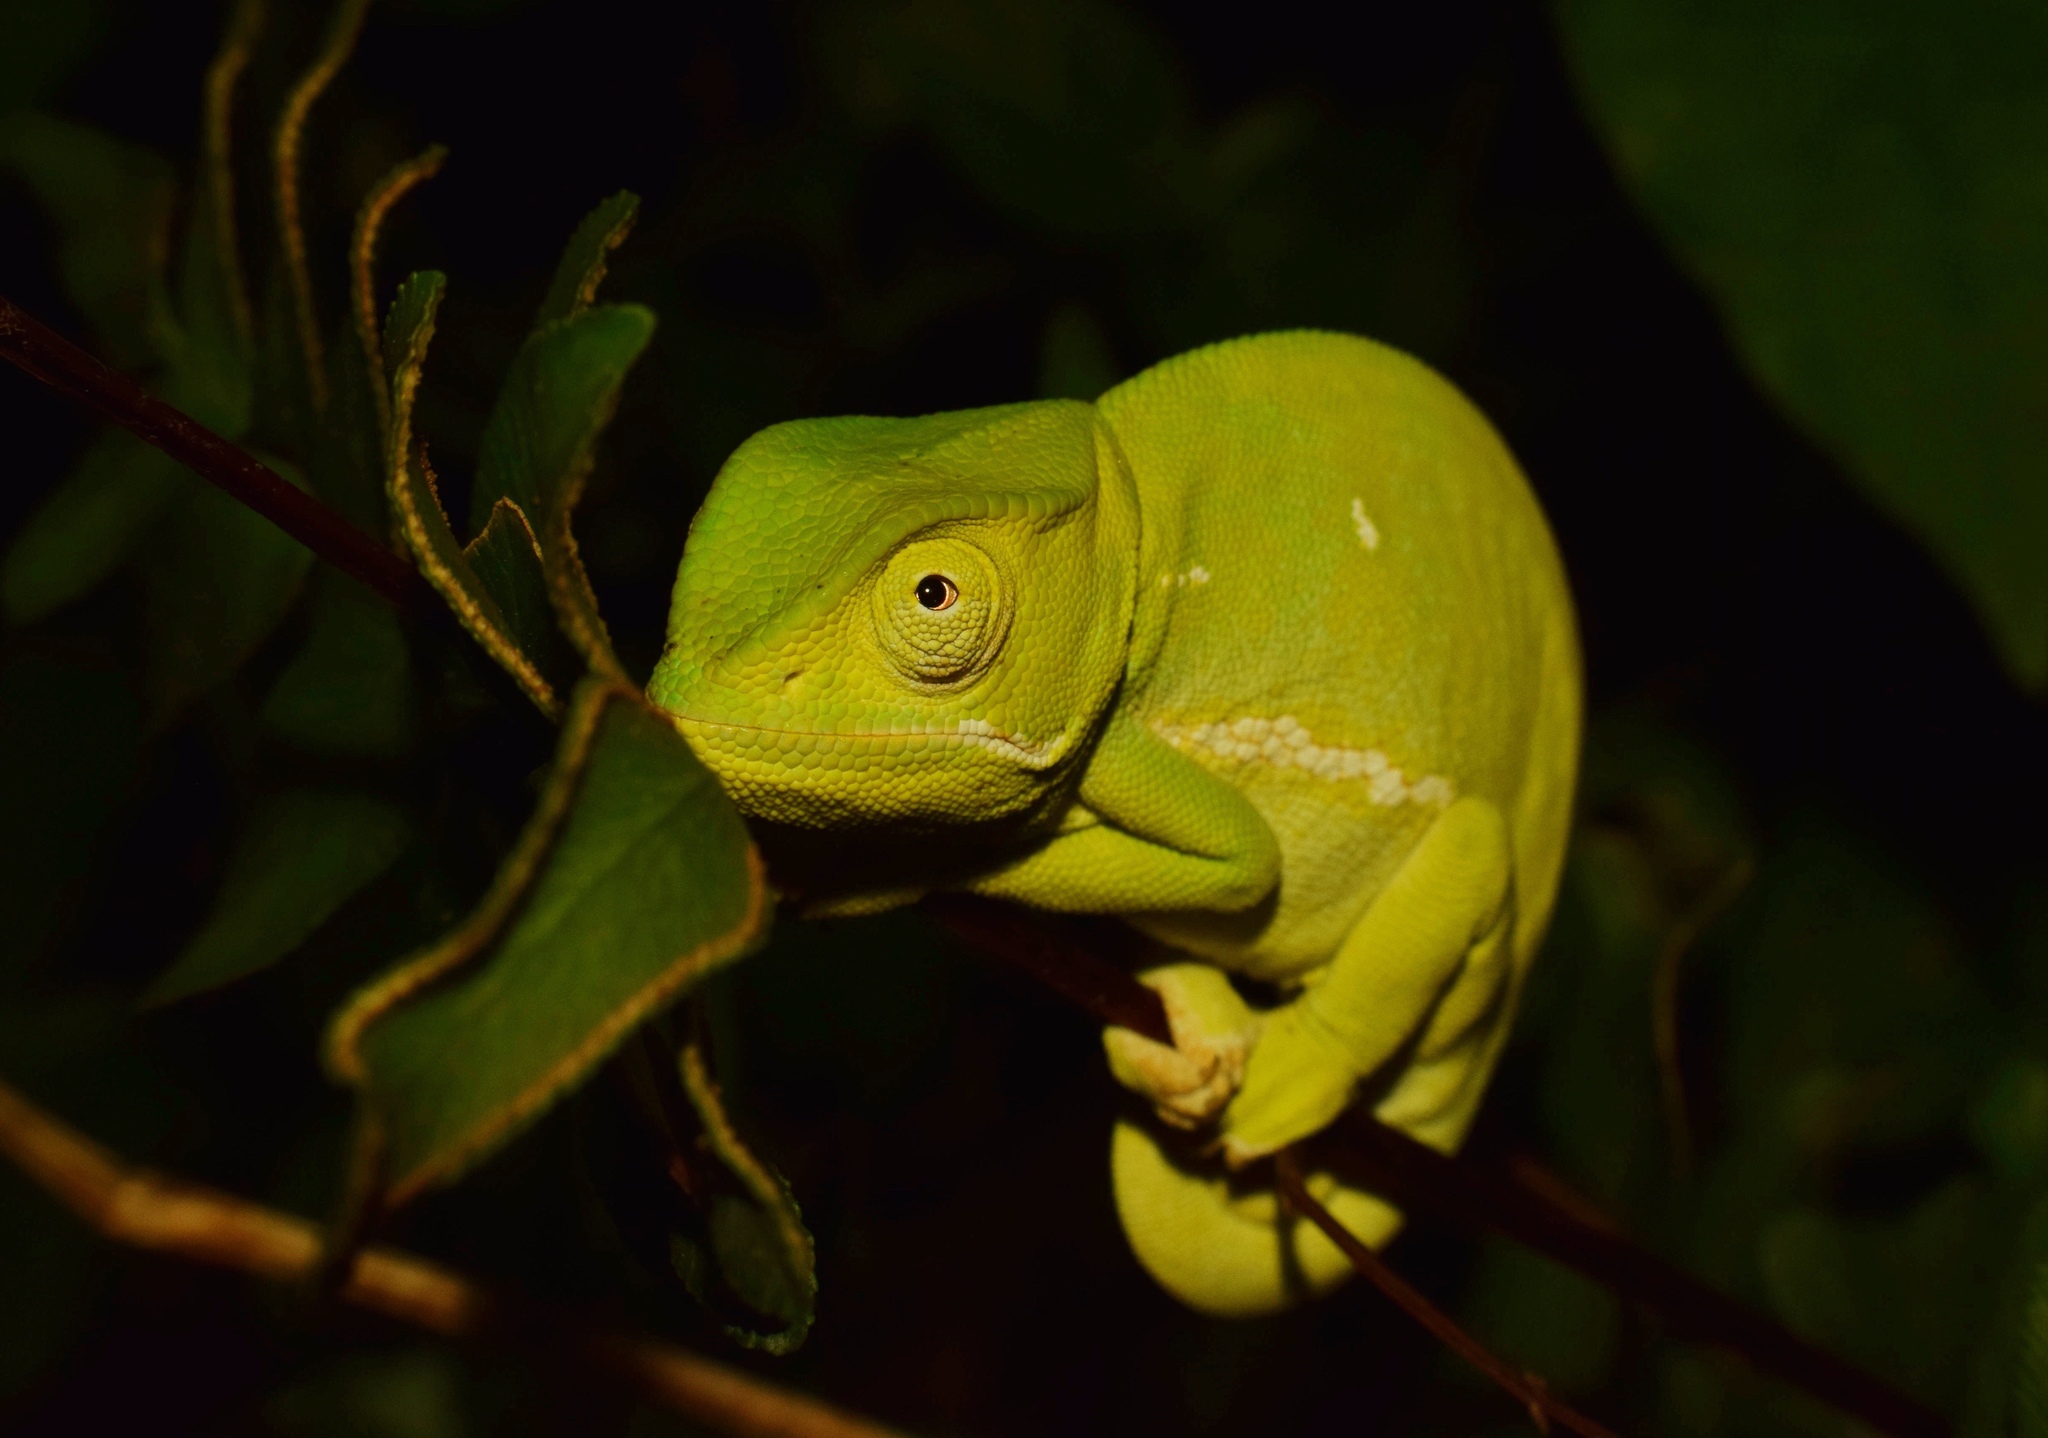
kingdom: Animalia
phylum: Chordata
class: Squamata
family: Chamaeleonidae
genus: Chamaeleo
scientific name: Chamaeleo dilepis
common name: Flapneck chameleon
